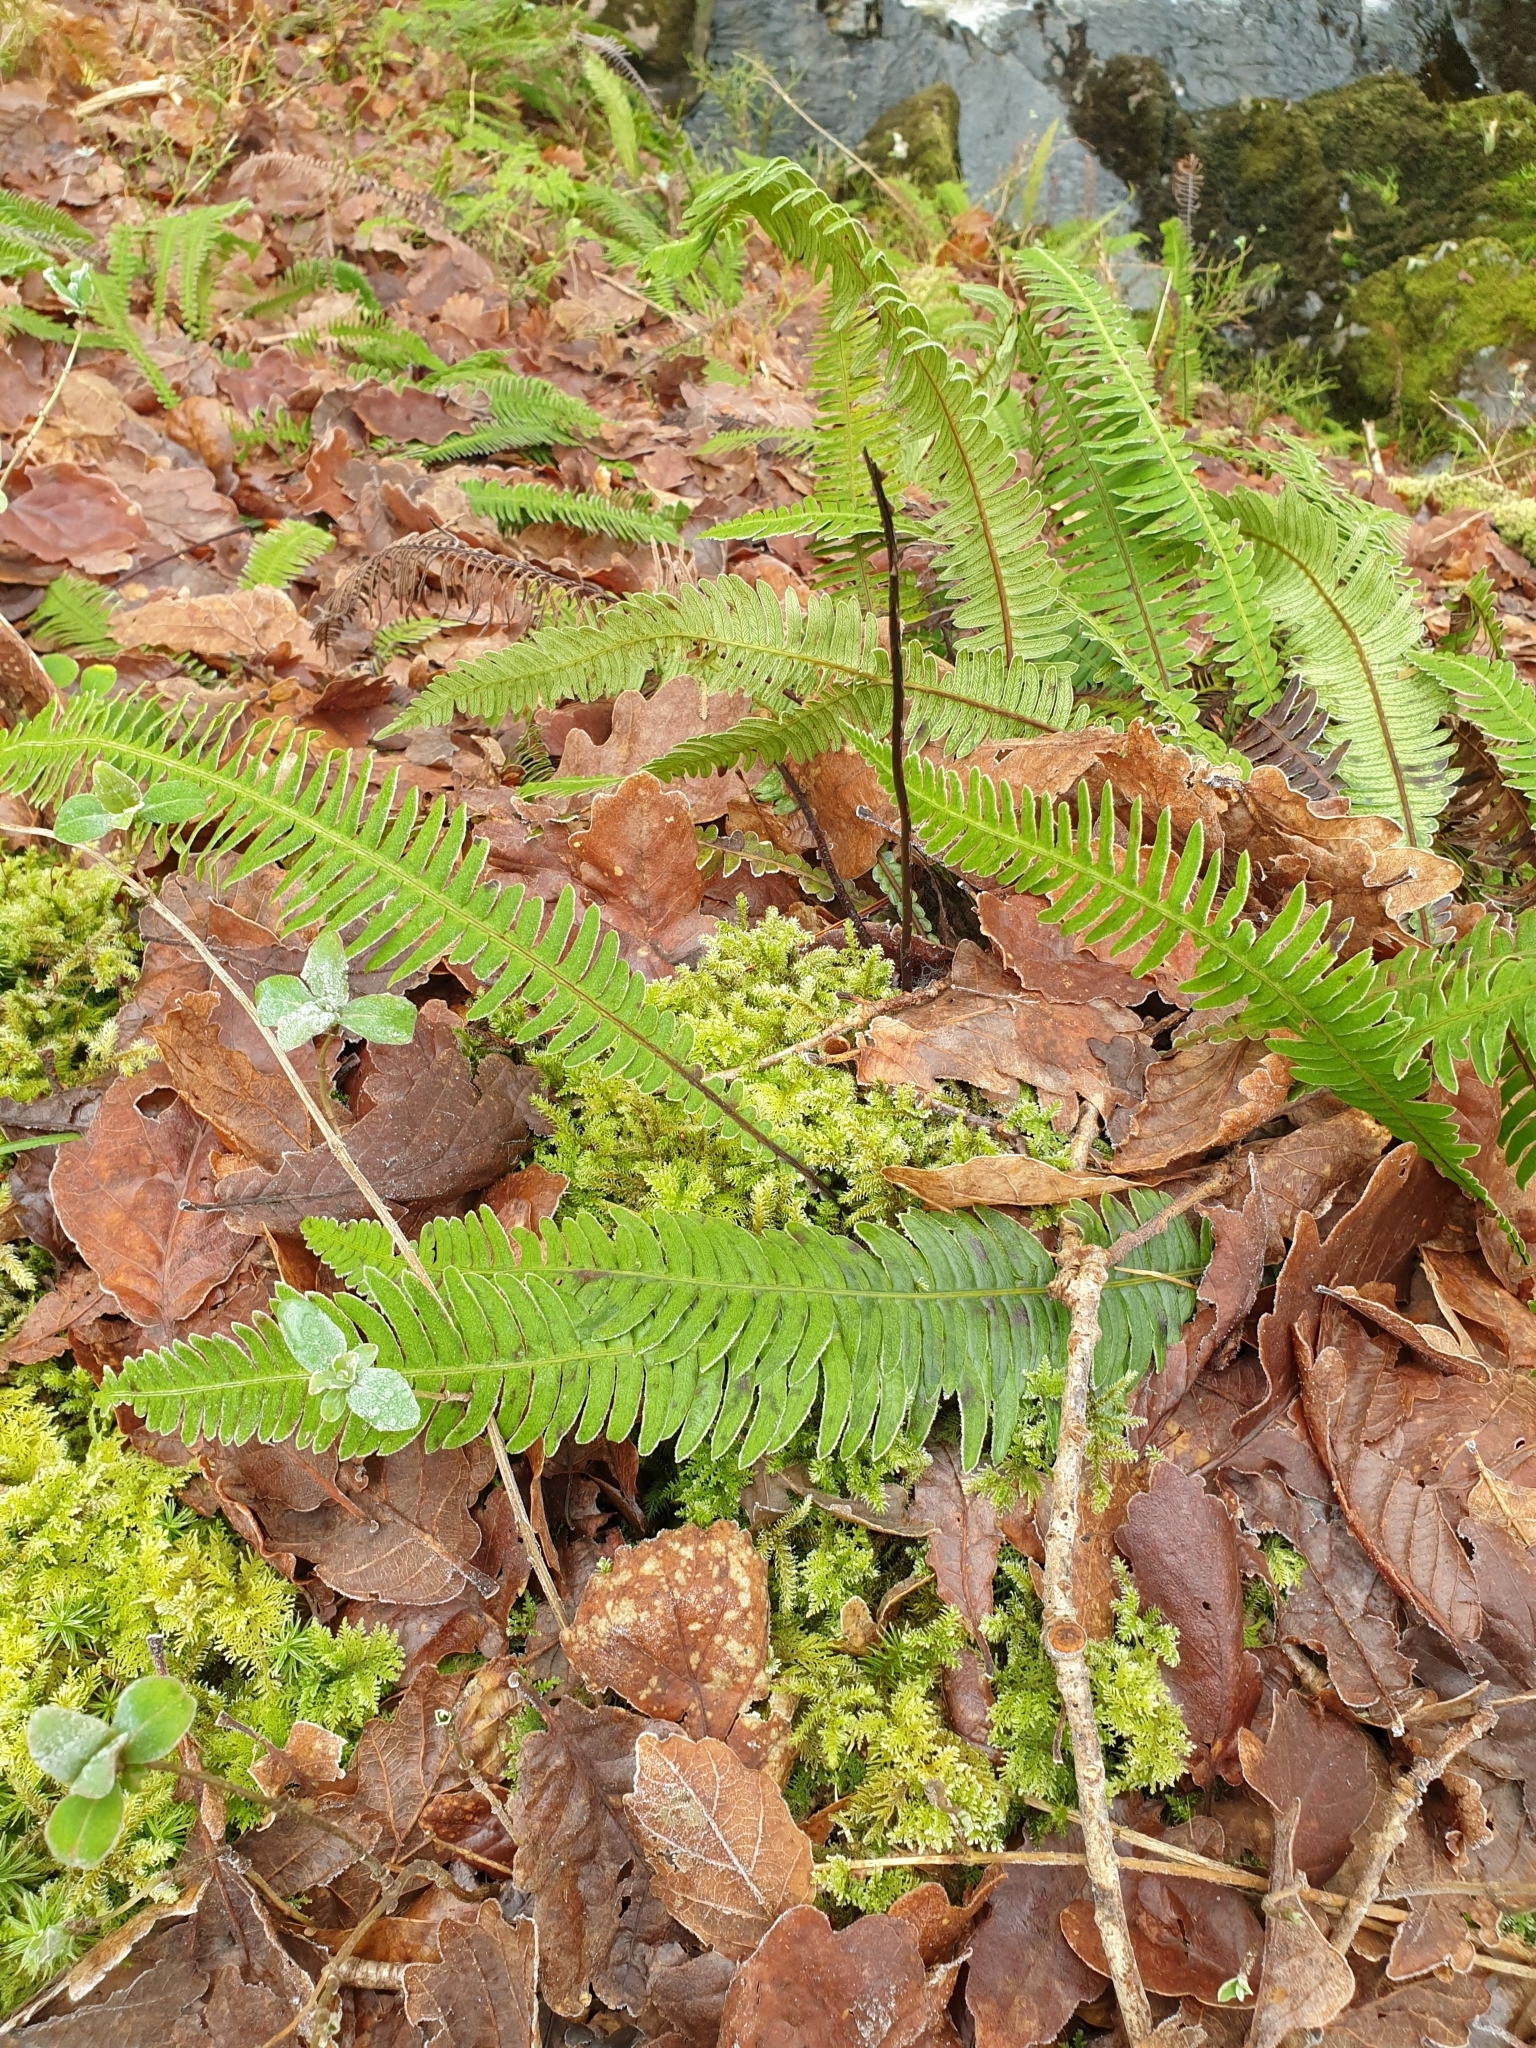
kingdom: Plantae
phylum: Tracheophyta
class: Polypodiopsida
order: Polypodiales
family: Blechnaceae
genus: Struthiopteris
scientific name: Struthiopteris spicant
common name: Deer fern
